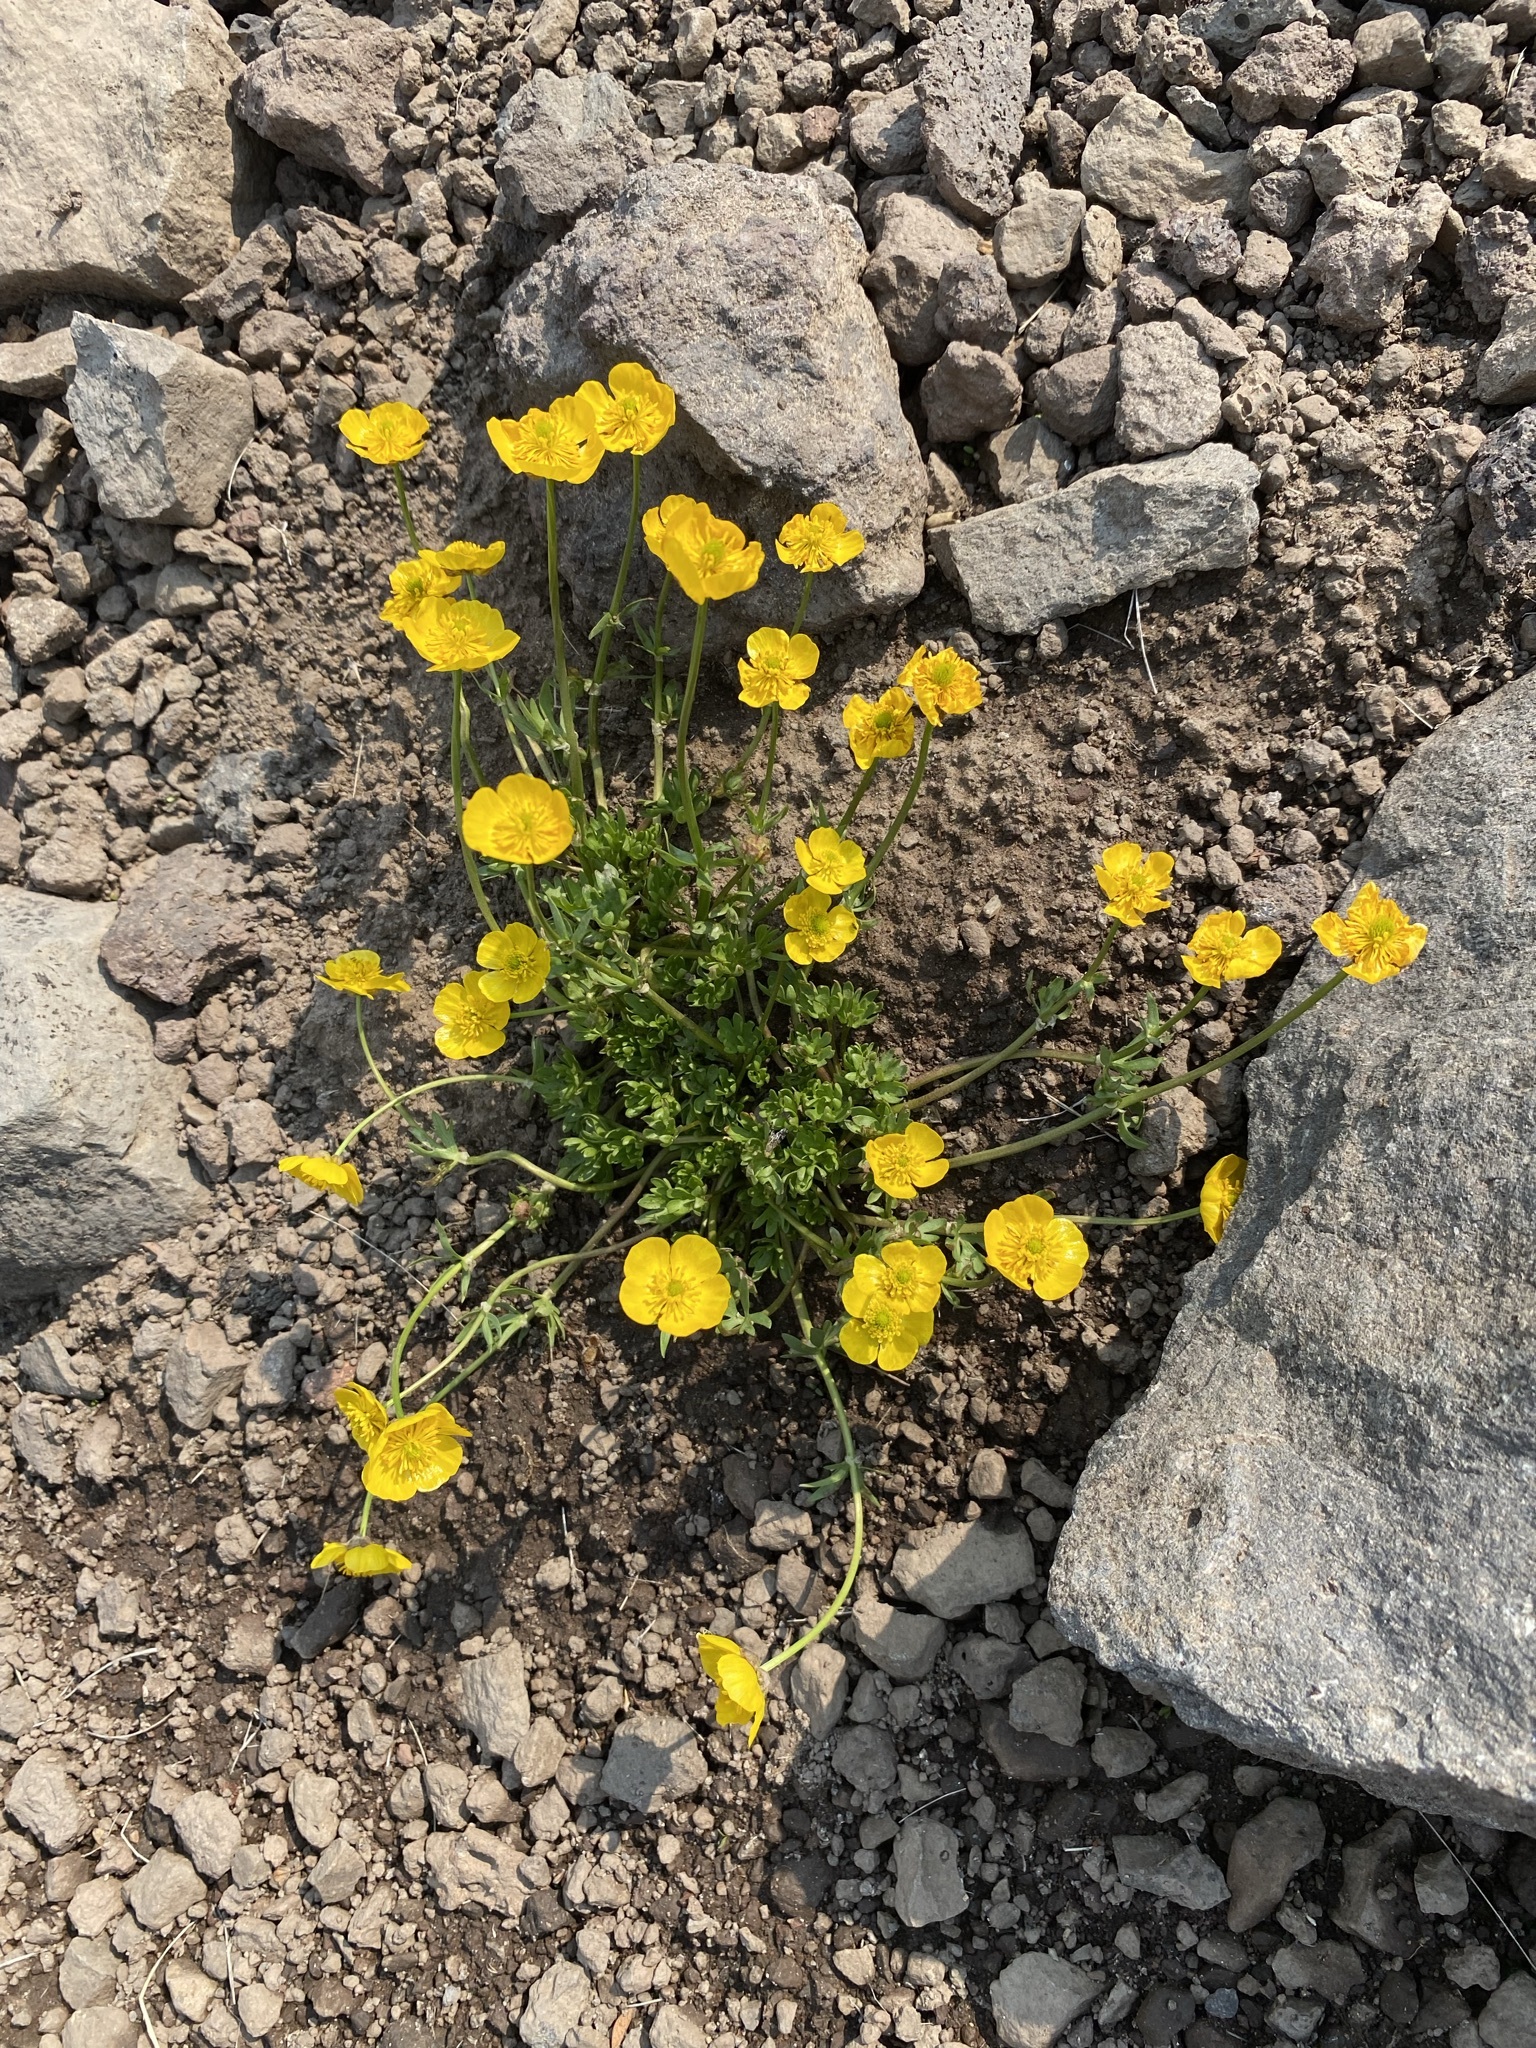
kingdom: Plantae
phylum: Tracheophyta
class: Magnoliopsida
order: Ranunculales
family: Ranunculaceae
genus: Ranunculus
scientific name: Ranunculus eschscholtzii
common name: Eschscholtz's buttercup
